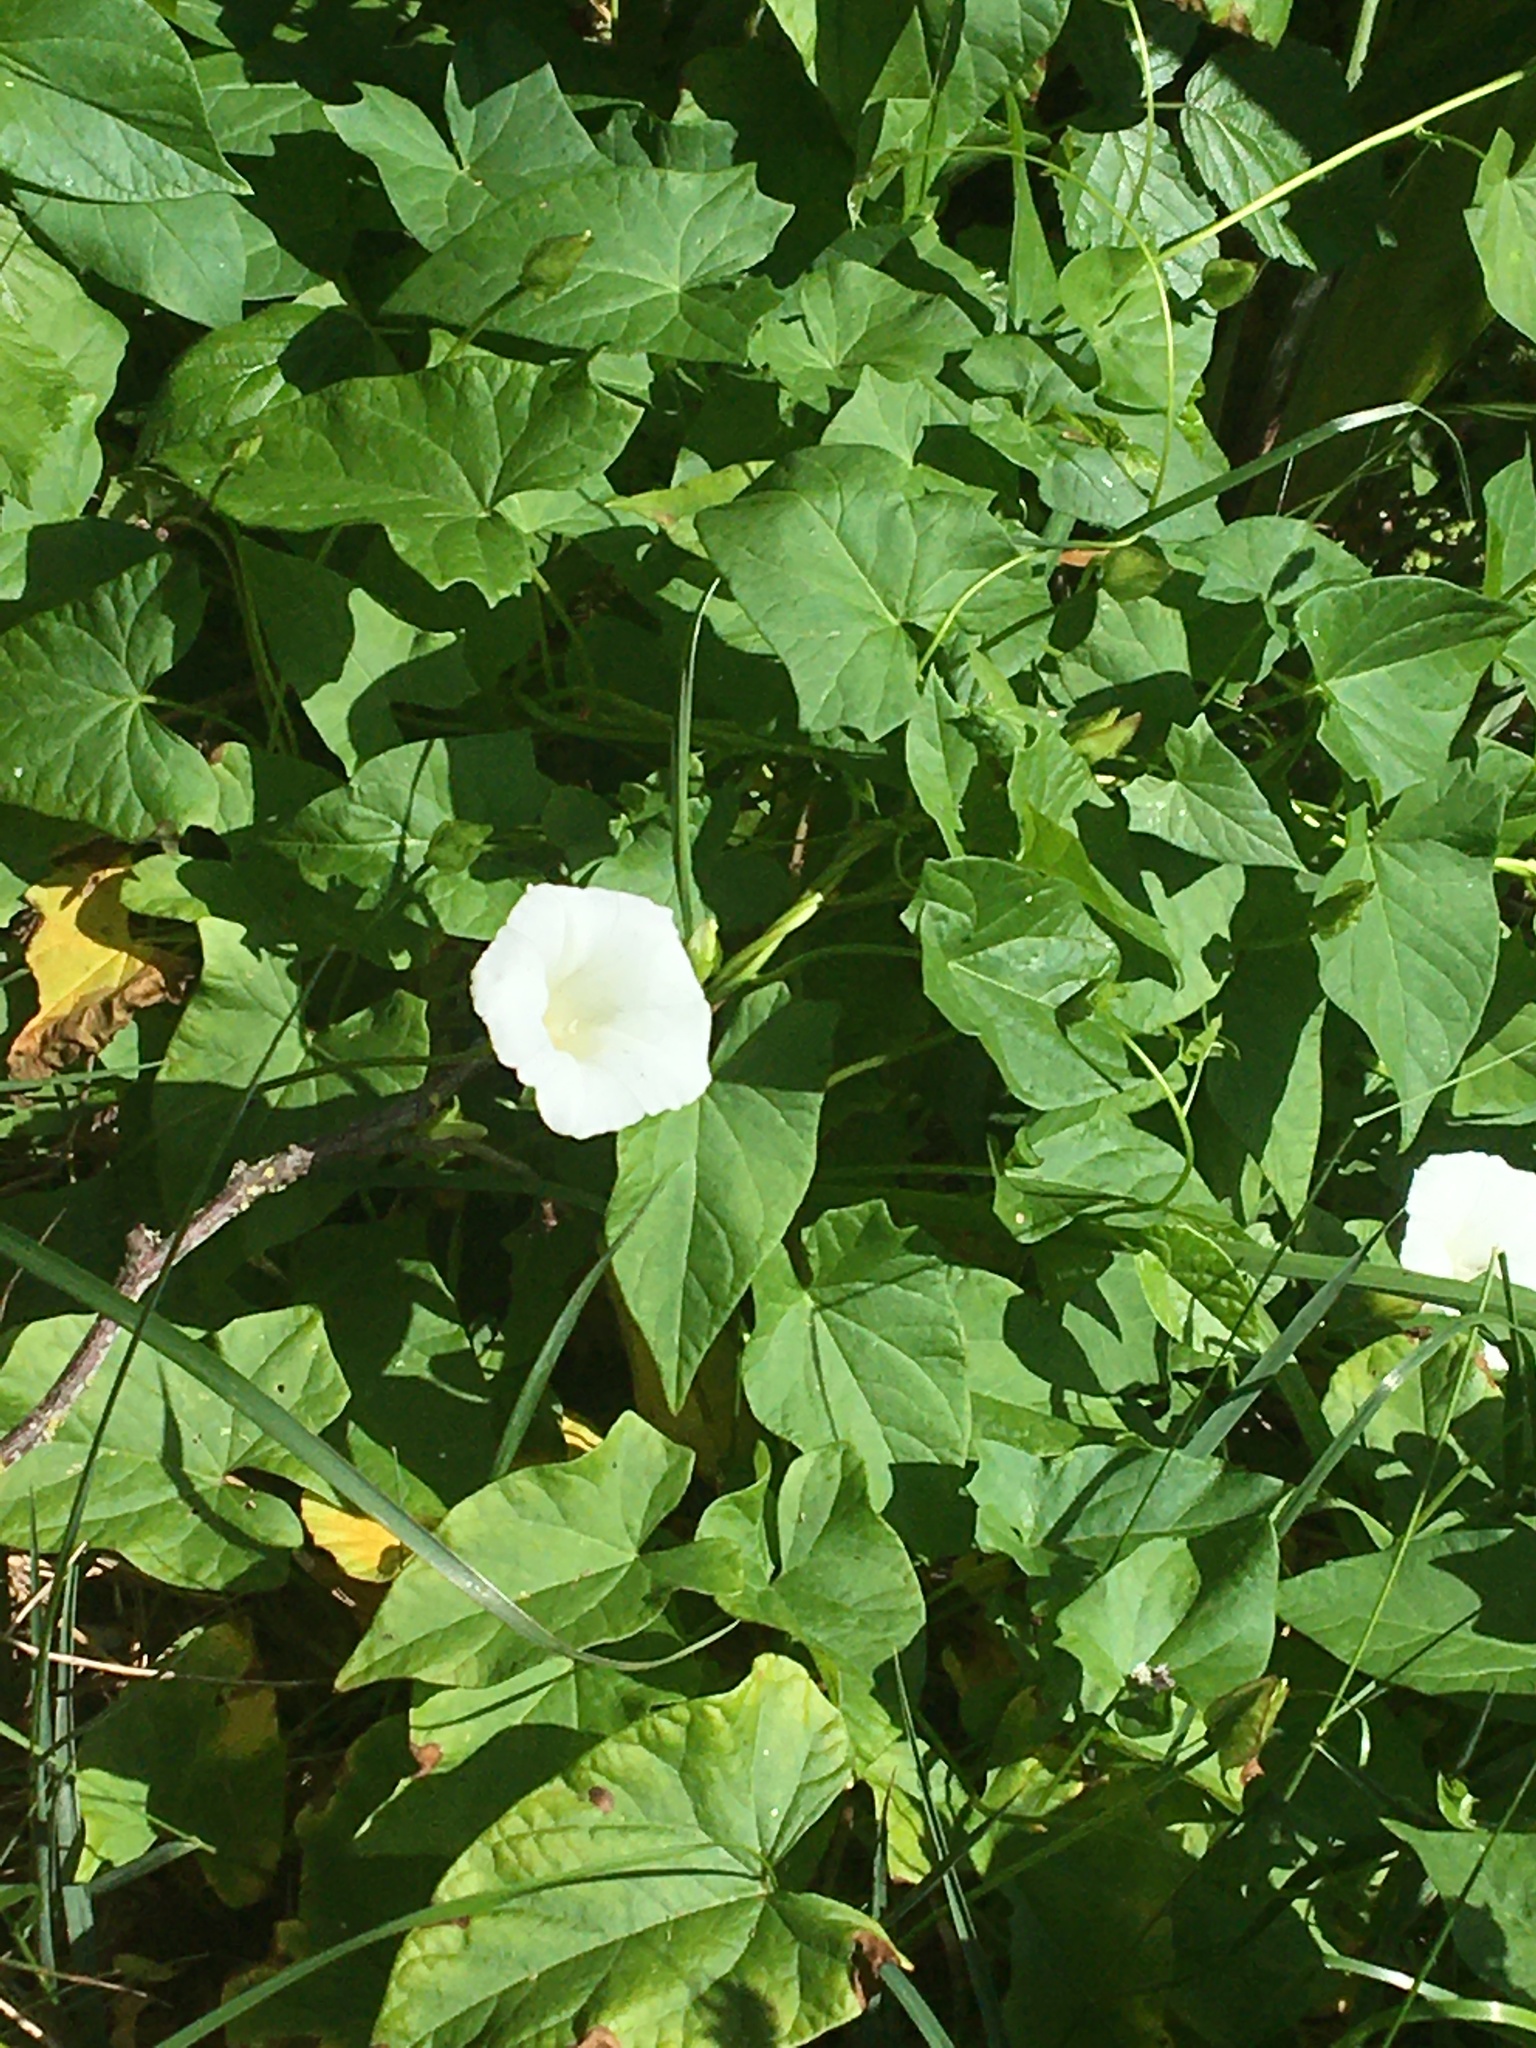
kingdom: Plantae
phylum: Tracheophyta
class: Magnoliopsida
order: Solanales
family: Convolvulaceae
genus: Calystegia
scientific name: Calystegia silvatica
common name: Large bindweed
